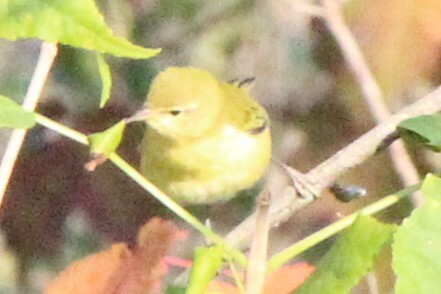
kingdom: Animalia
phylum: Chordata
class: Aves
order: Passeriformes
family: Parulidae
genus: Leiothlypis
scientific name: Leiothlypis peregrina
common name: Tennessee warbler
